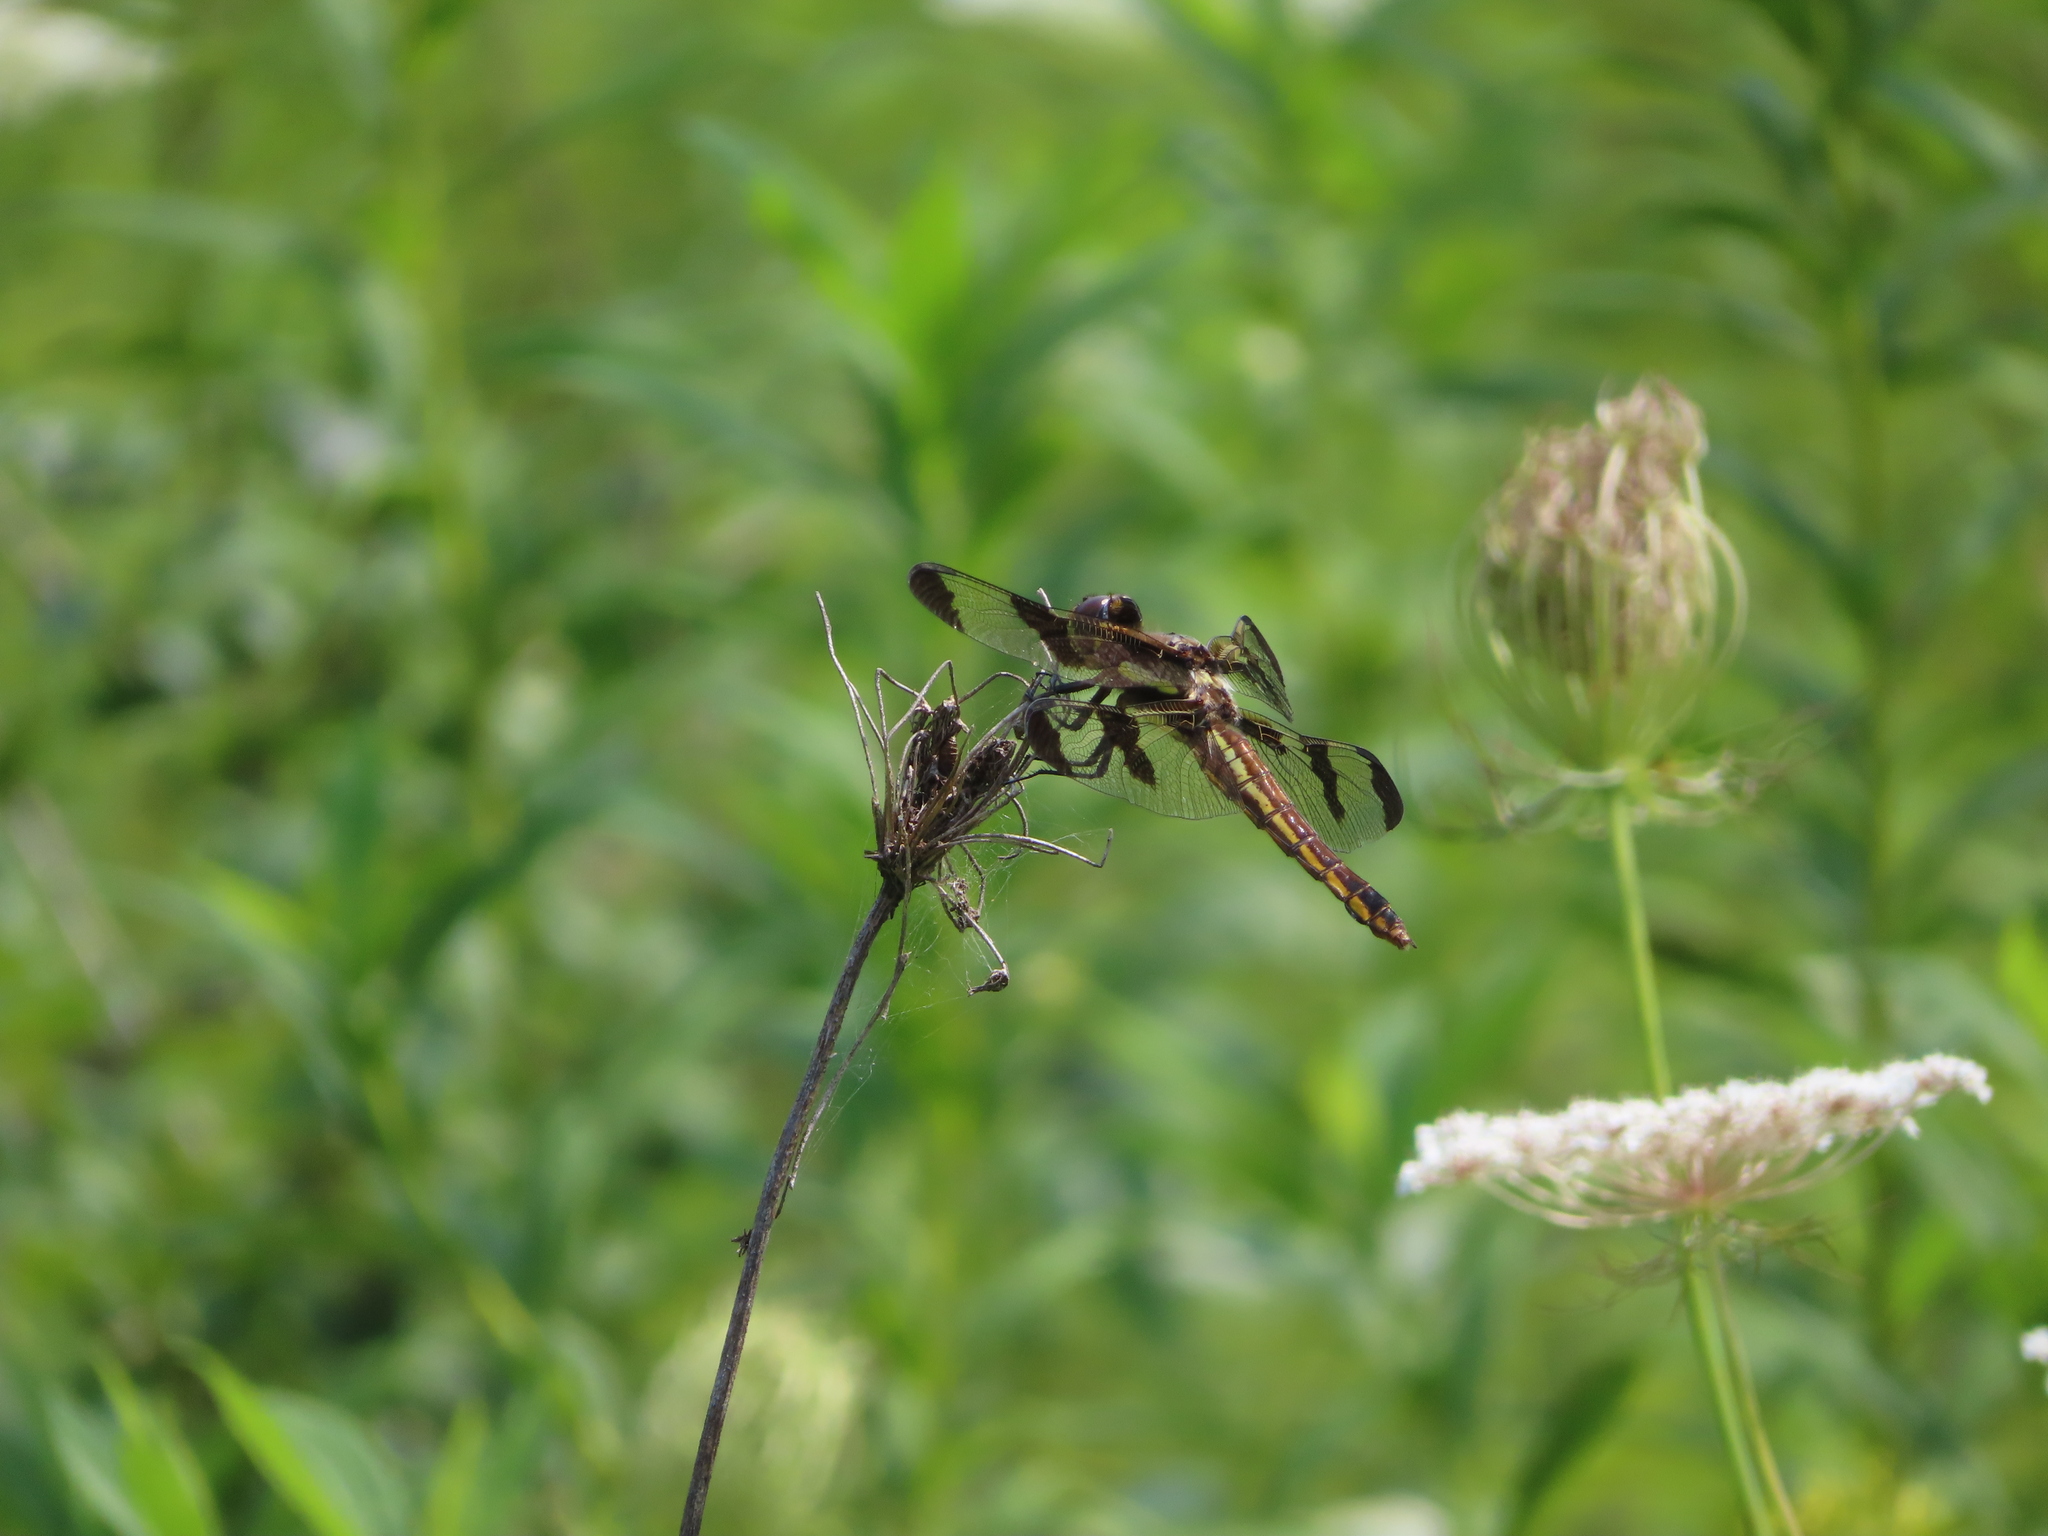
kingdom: Animalia
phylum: Arthropoda
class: Insecta
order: Odonata
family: Libellulidae
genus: Libellula
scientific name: Libellula pulchella
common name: Twelve-spotted skimmer
